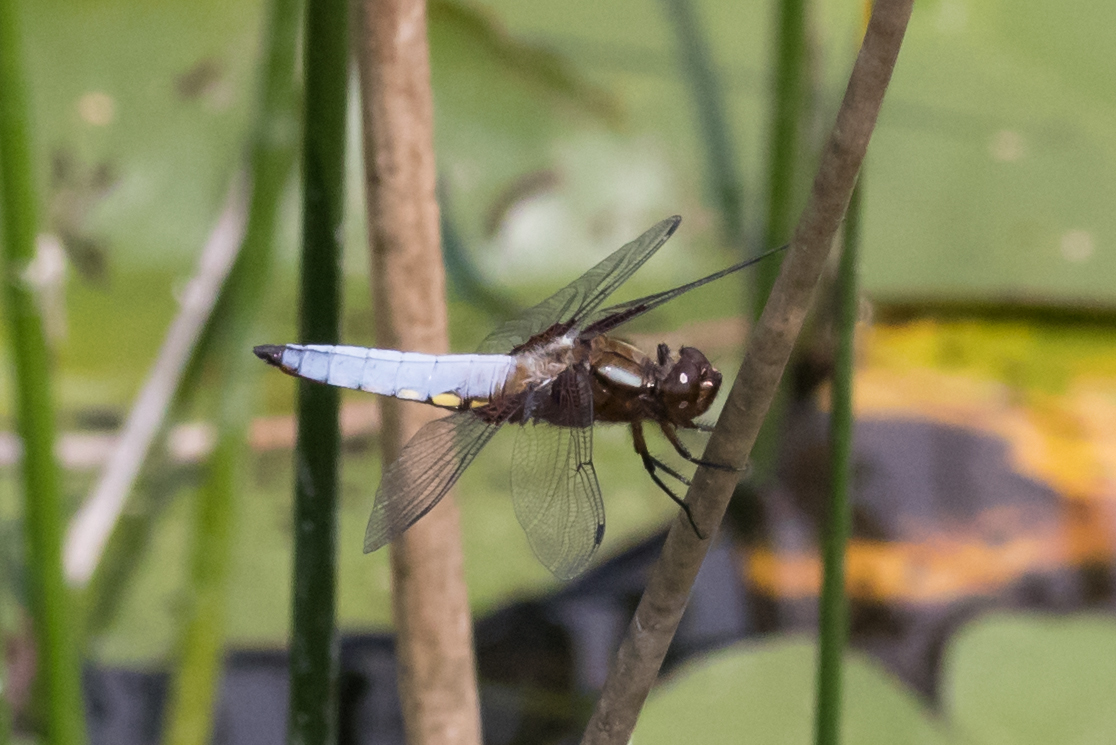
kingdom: Animalia
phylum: Arthropoda
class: Insecta
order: Odonata
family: Libellulidae
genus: Libellula
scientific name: Libellula depressa
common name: Broad-bodied chaser
